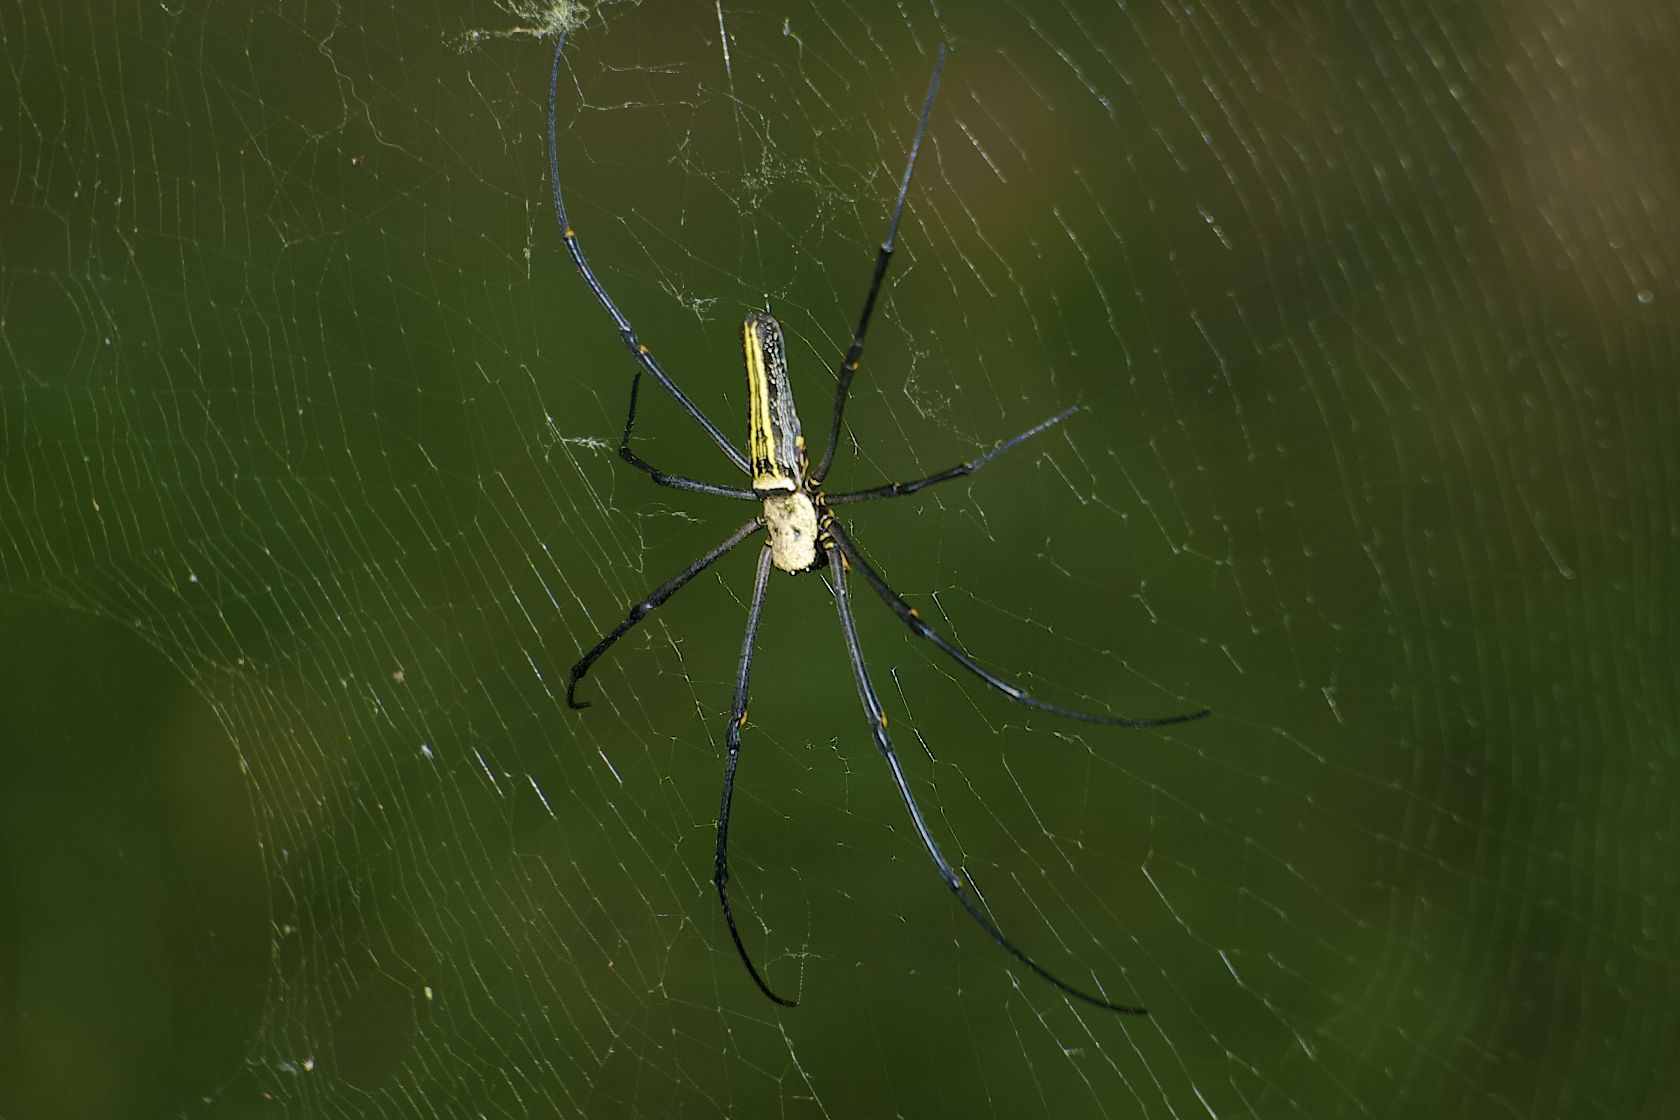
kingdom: Animalia
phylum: Arthropoda
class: Arachnida
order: Araneae
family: Araneidae
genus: Nephila
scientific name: Nephila pilipes
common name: Giant golden orb weaver
